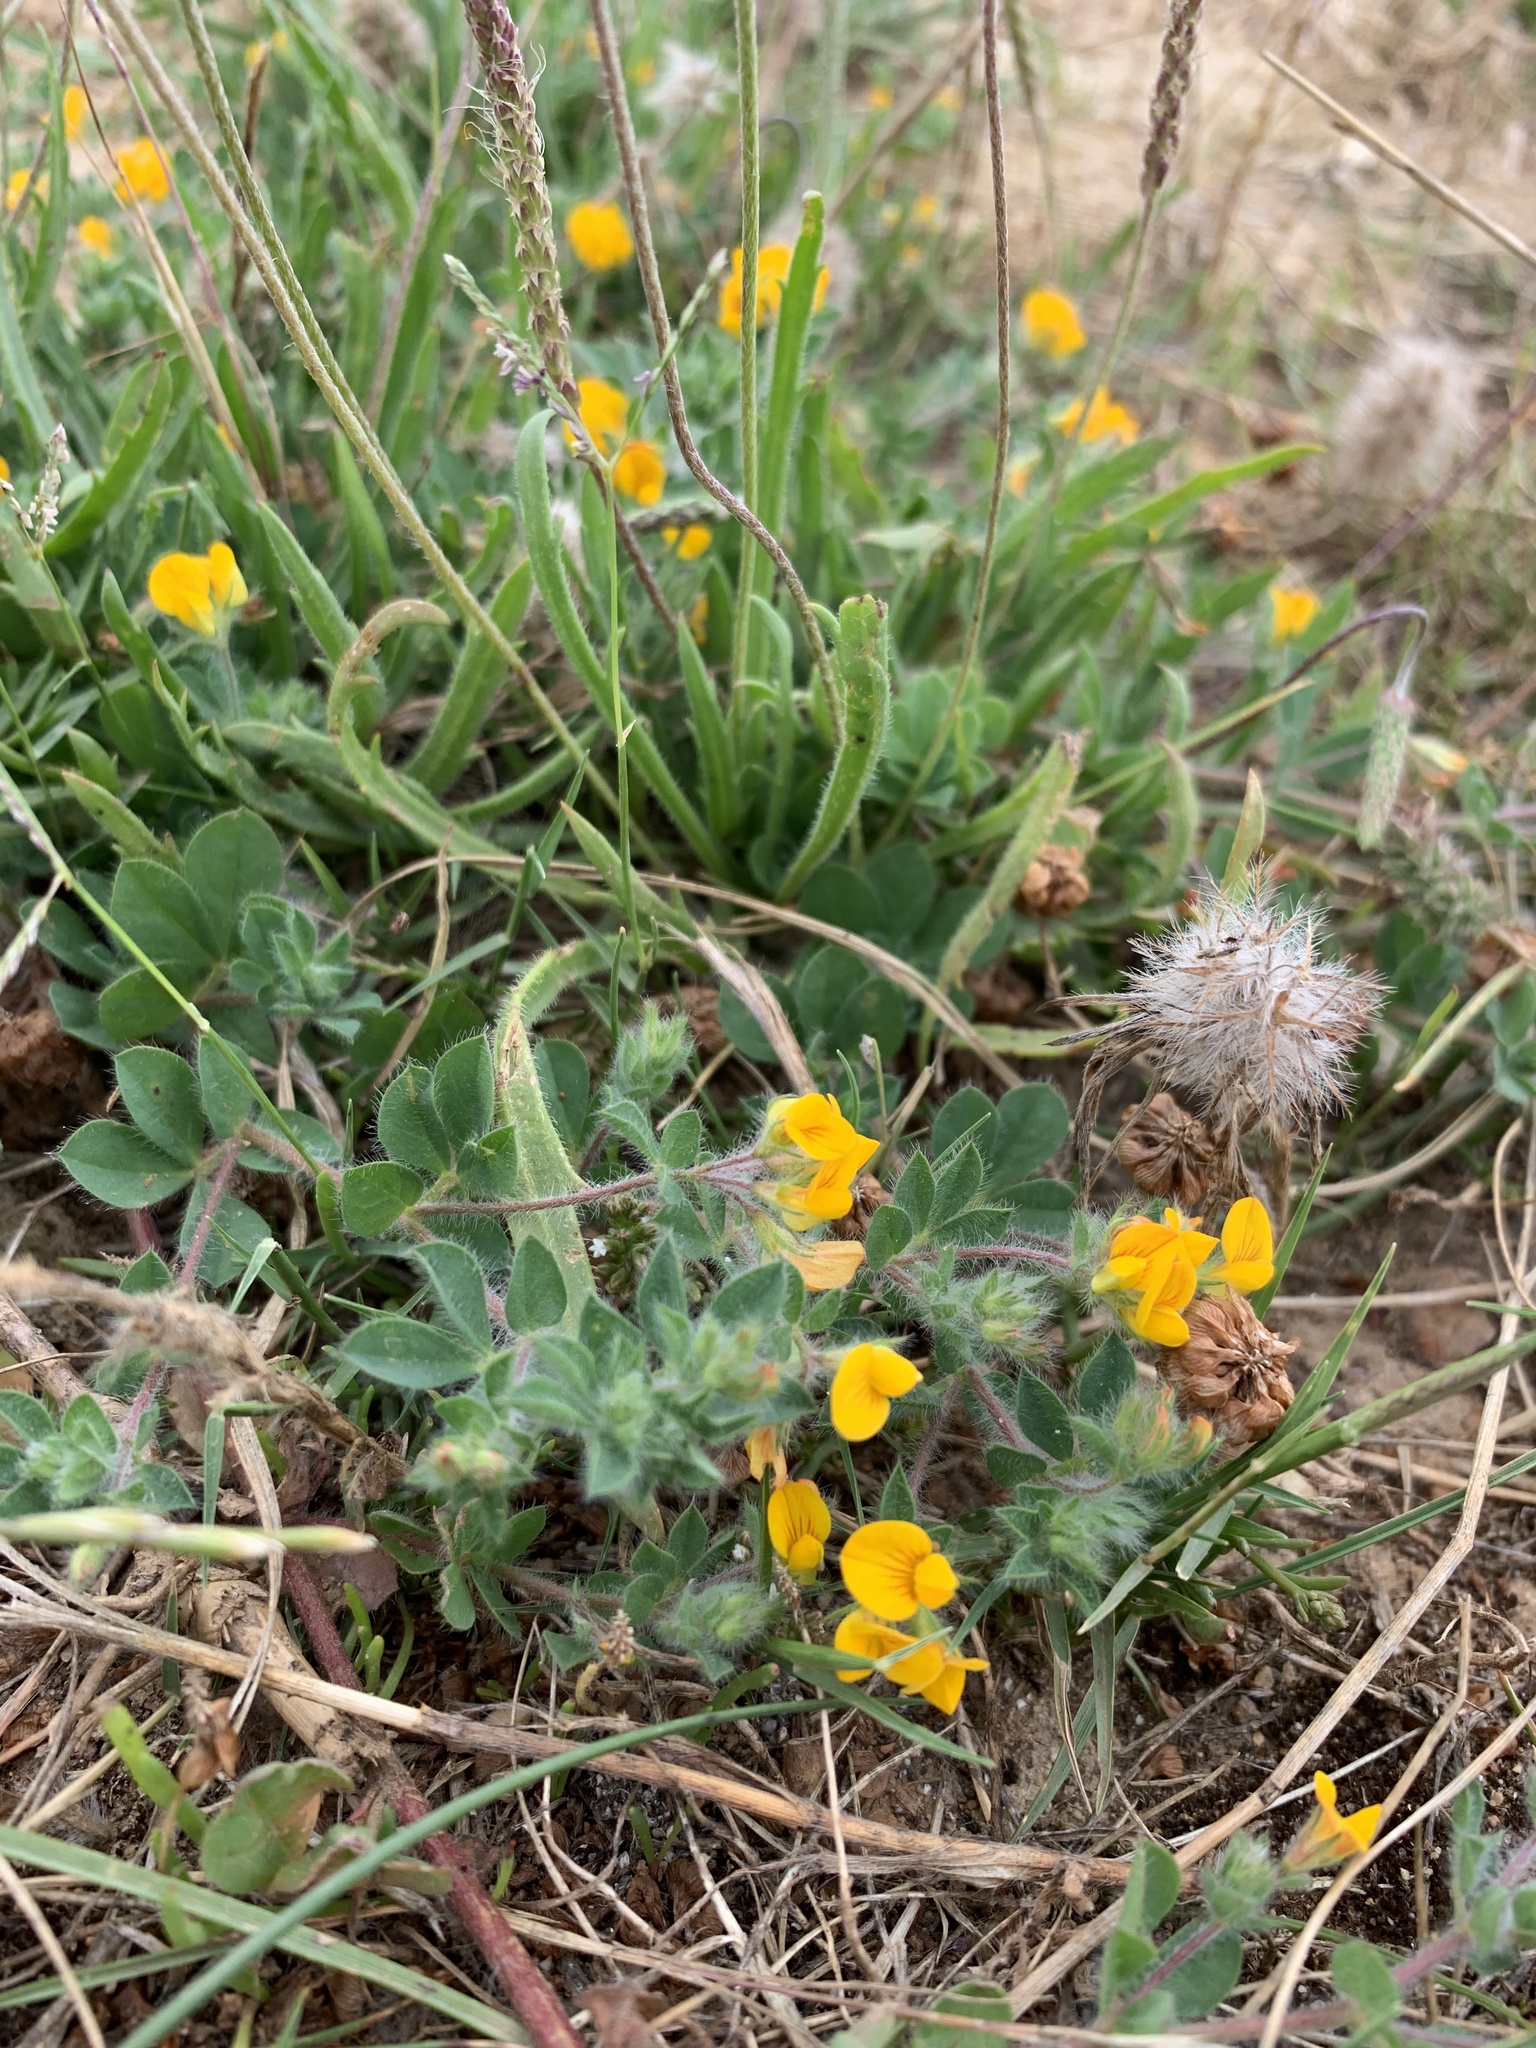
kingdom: Plantae
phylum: Tracheophyta
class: Magnoliopsida
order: Fabales
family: Fabaceae
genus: Lotus
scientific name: Lotus subbiflorus
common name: Hairy bird's-foot trefoil
